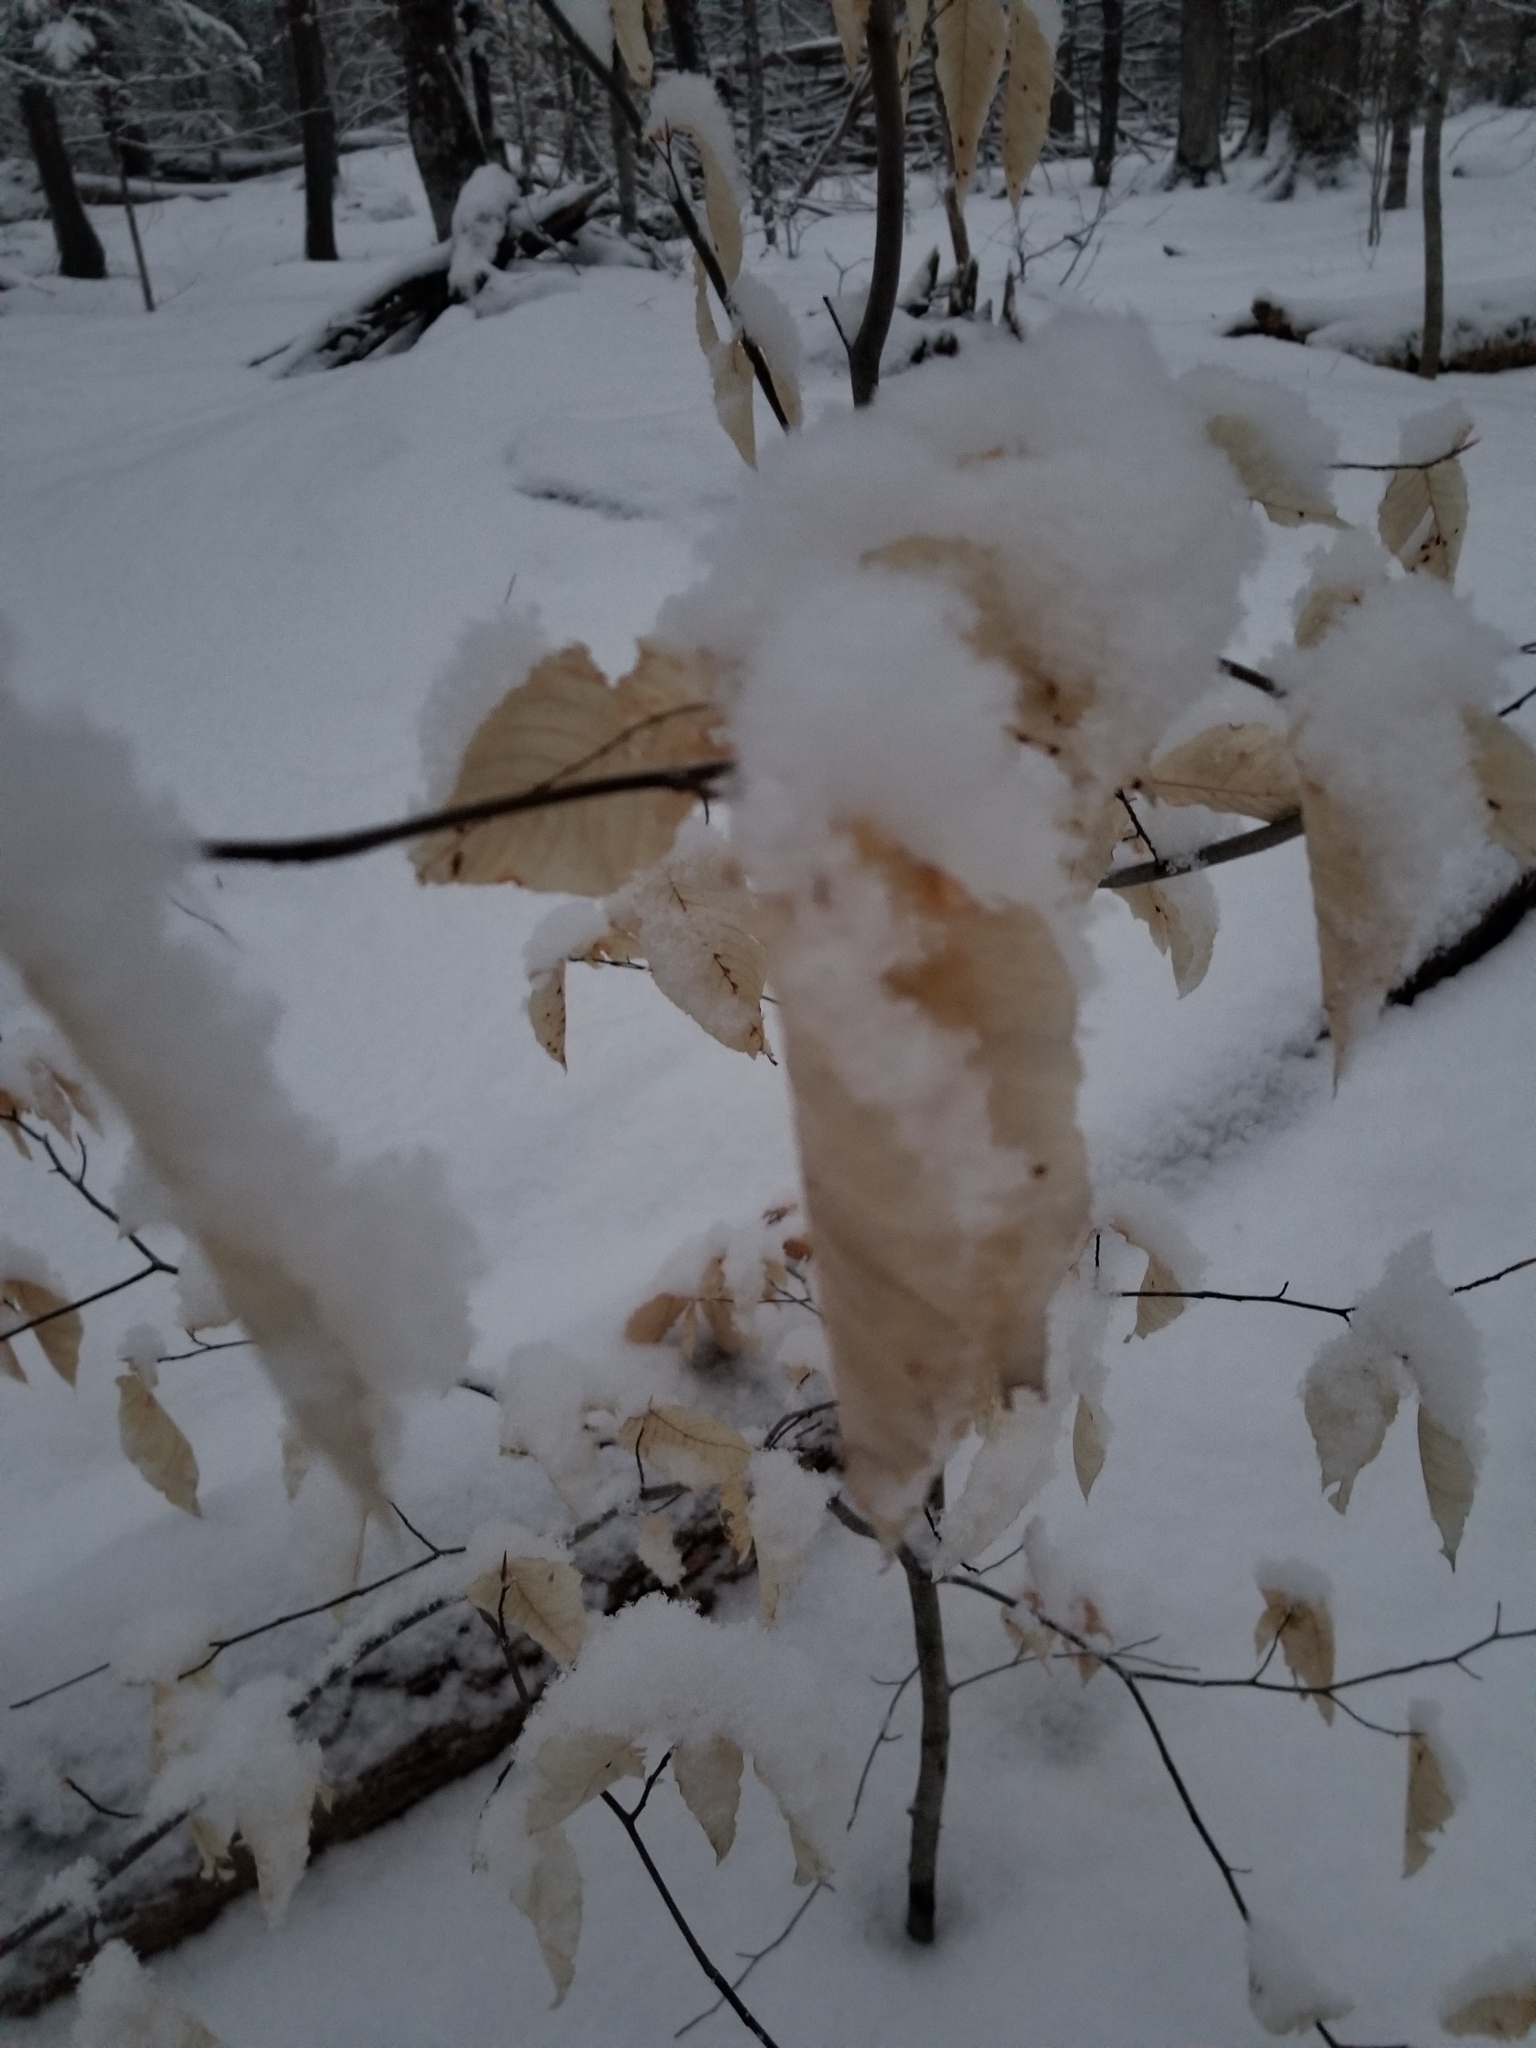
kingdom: Plantae
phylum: Tracheophyta
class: Magnoliopsida
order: Fagales
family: Fagaceae
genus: Fagus
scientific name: Fagus grandifolia
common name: American beech
